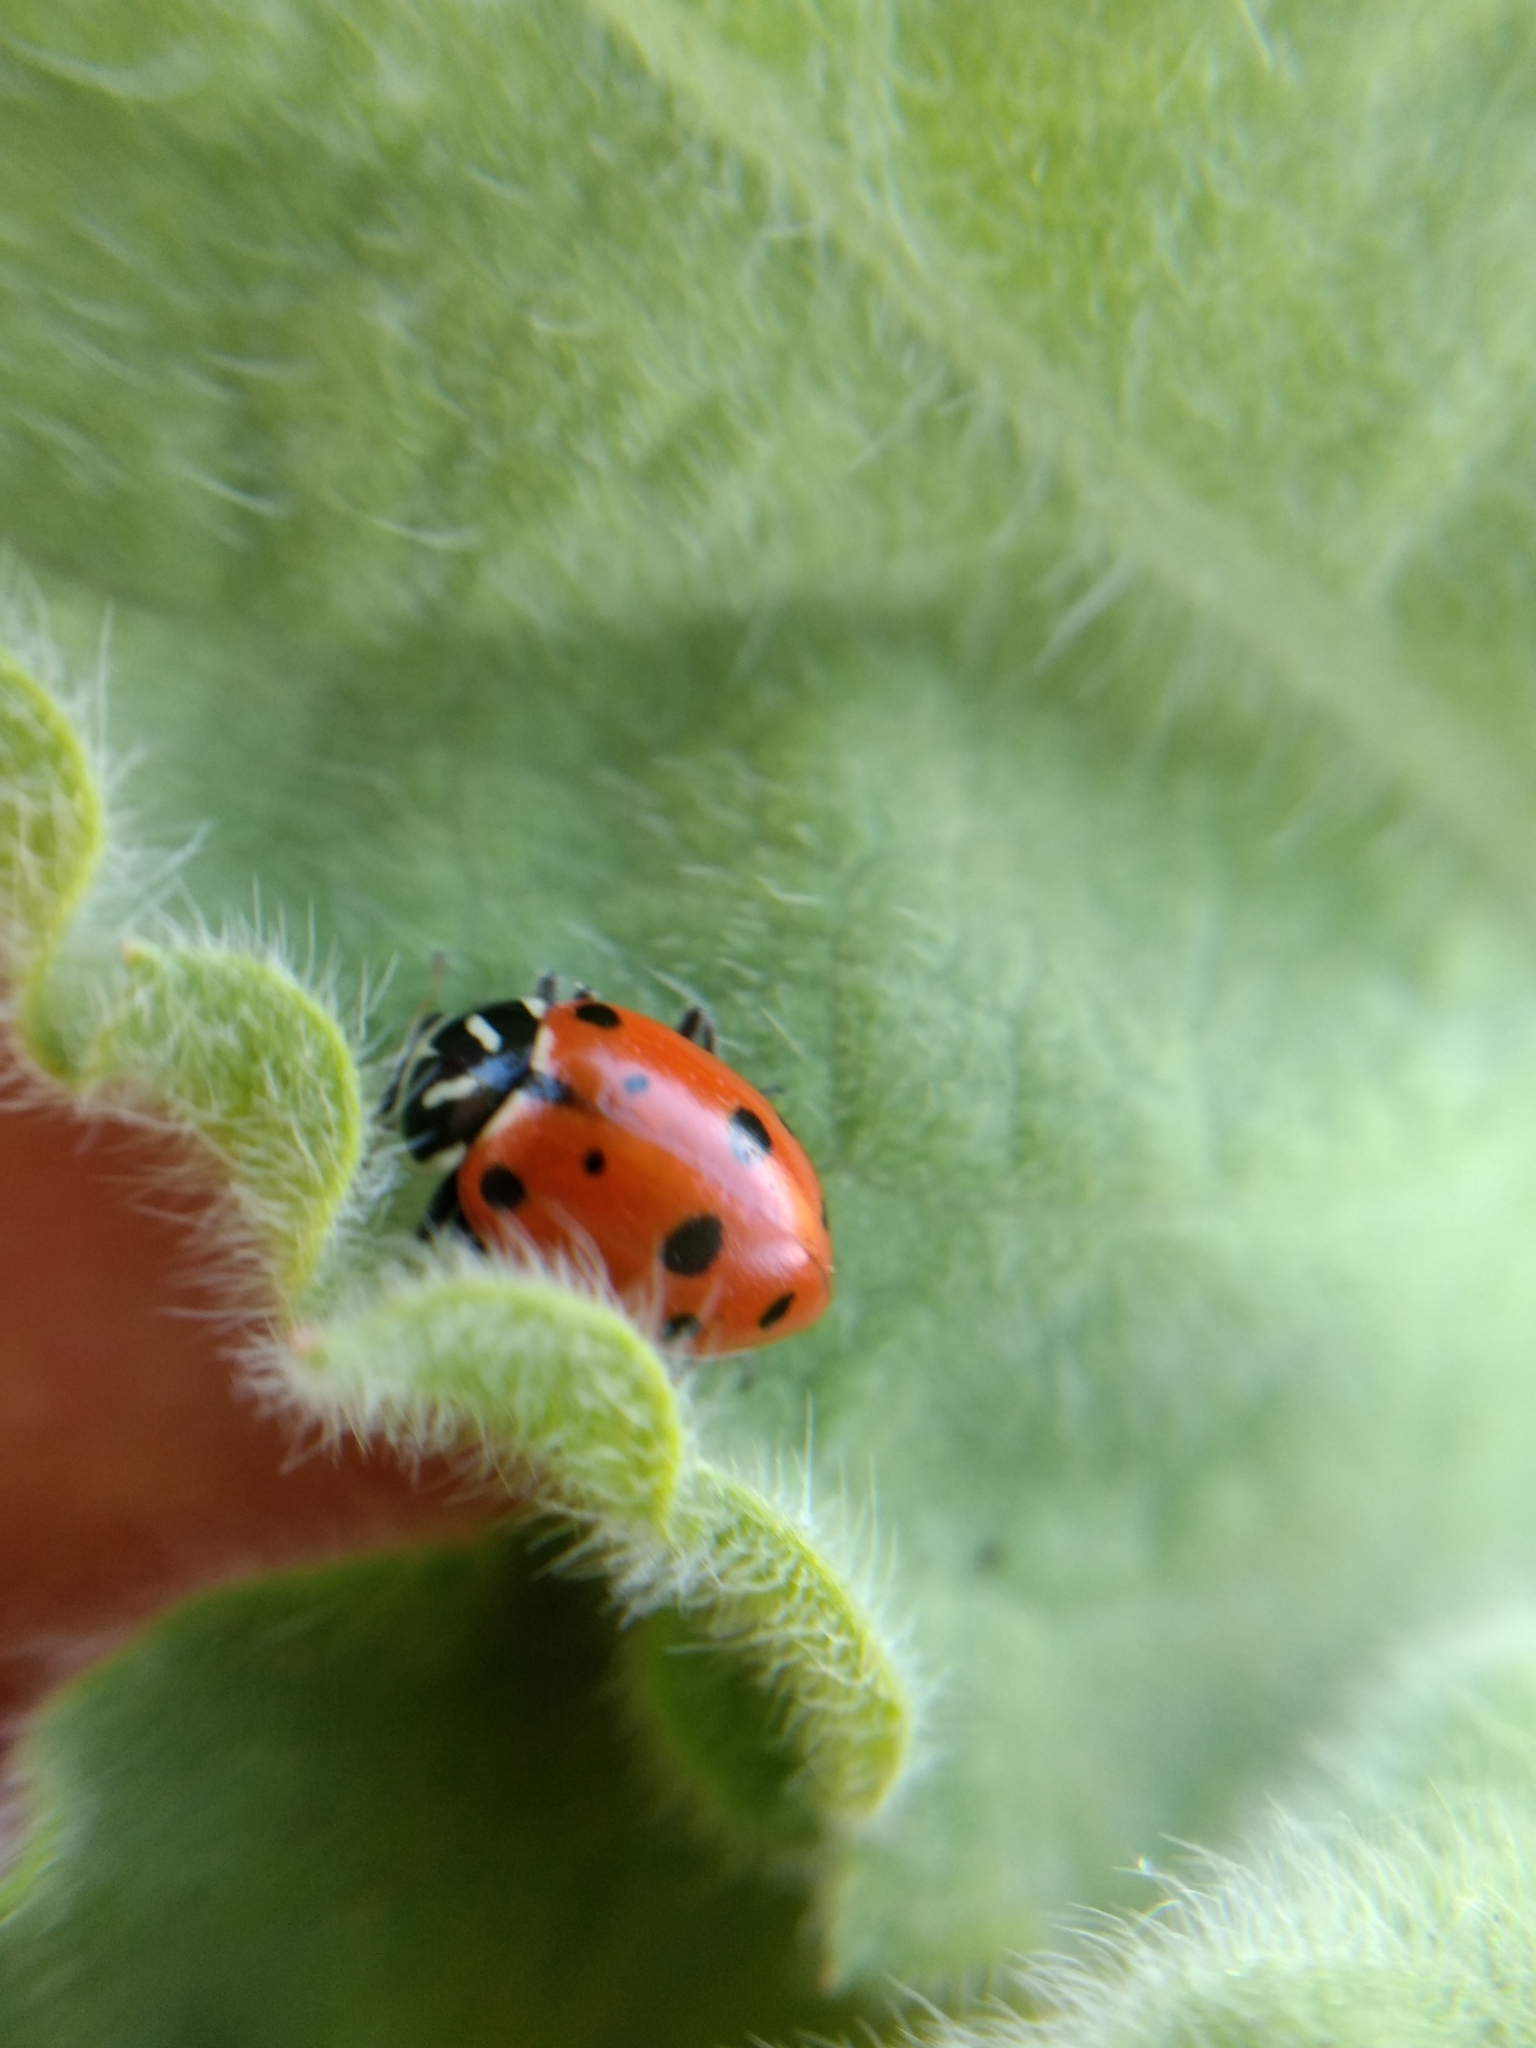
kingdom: Animalia
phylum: Arthropoda
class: Insecta
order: Coleoptera
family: Coccinellidae
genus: Hippodamia
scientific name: Hippodamia convergens
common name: Convergent lady beetle
